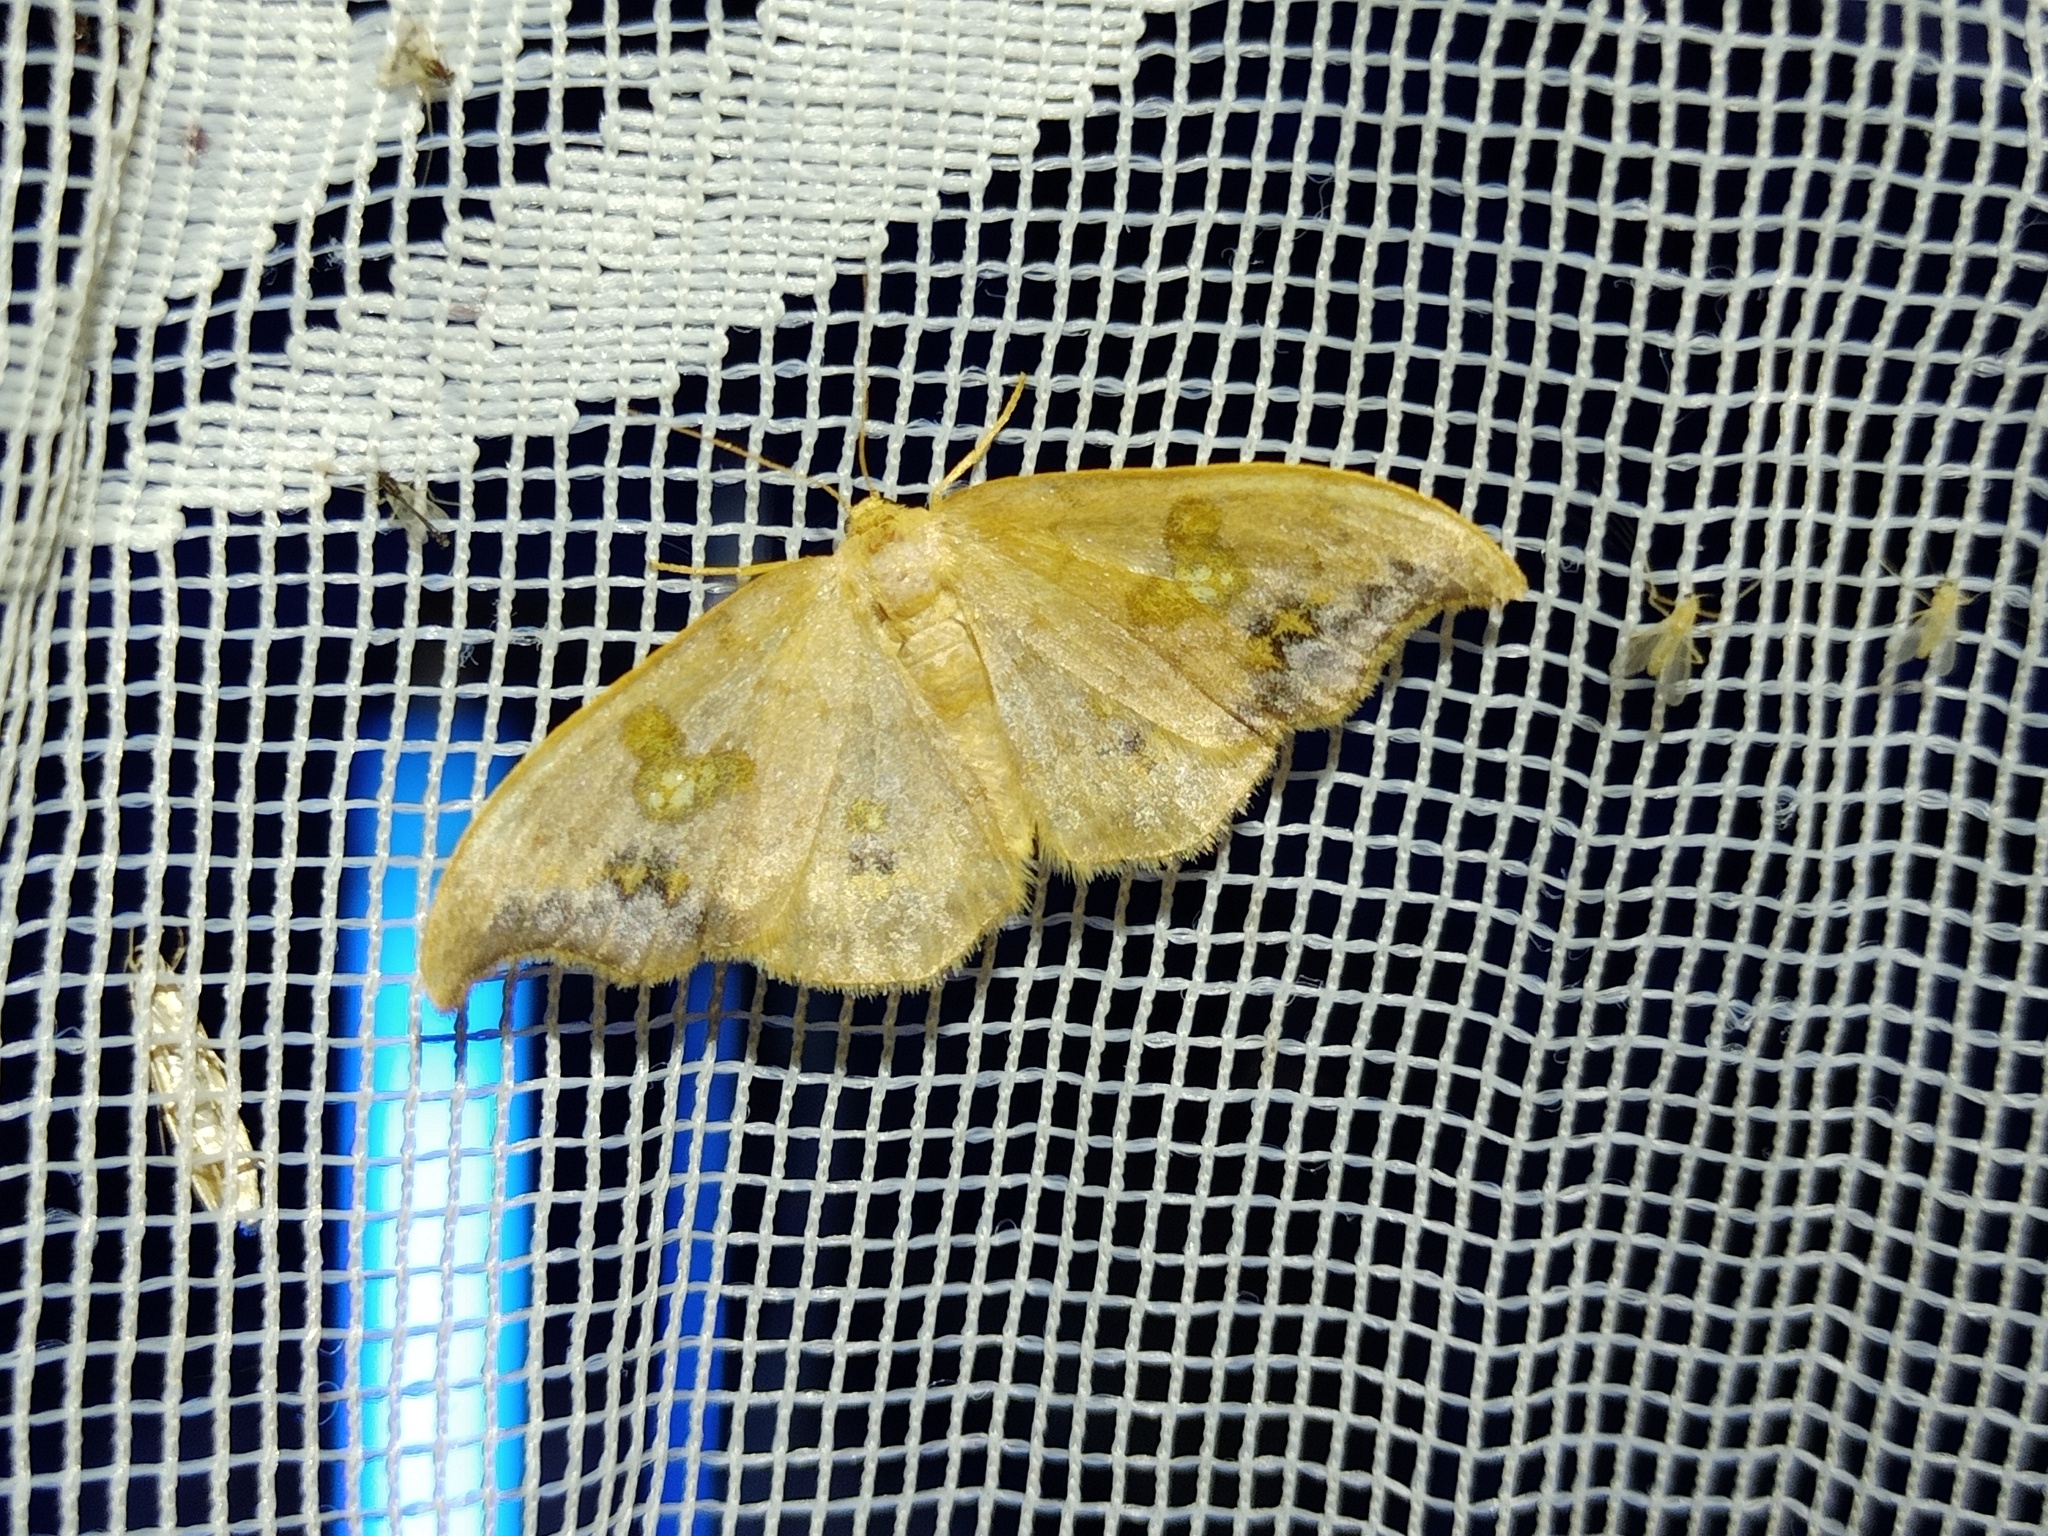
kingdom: Animalia
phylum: Arthropoda
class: Insecta
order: Lepidoptera
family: Drepanidae
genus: Sabra
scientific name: Sabra harpagula
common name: Scarce hook-tip
